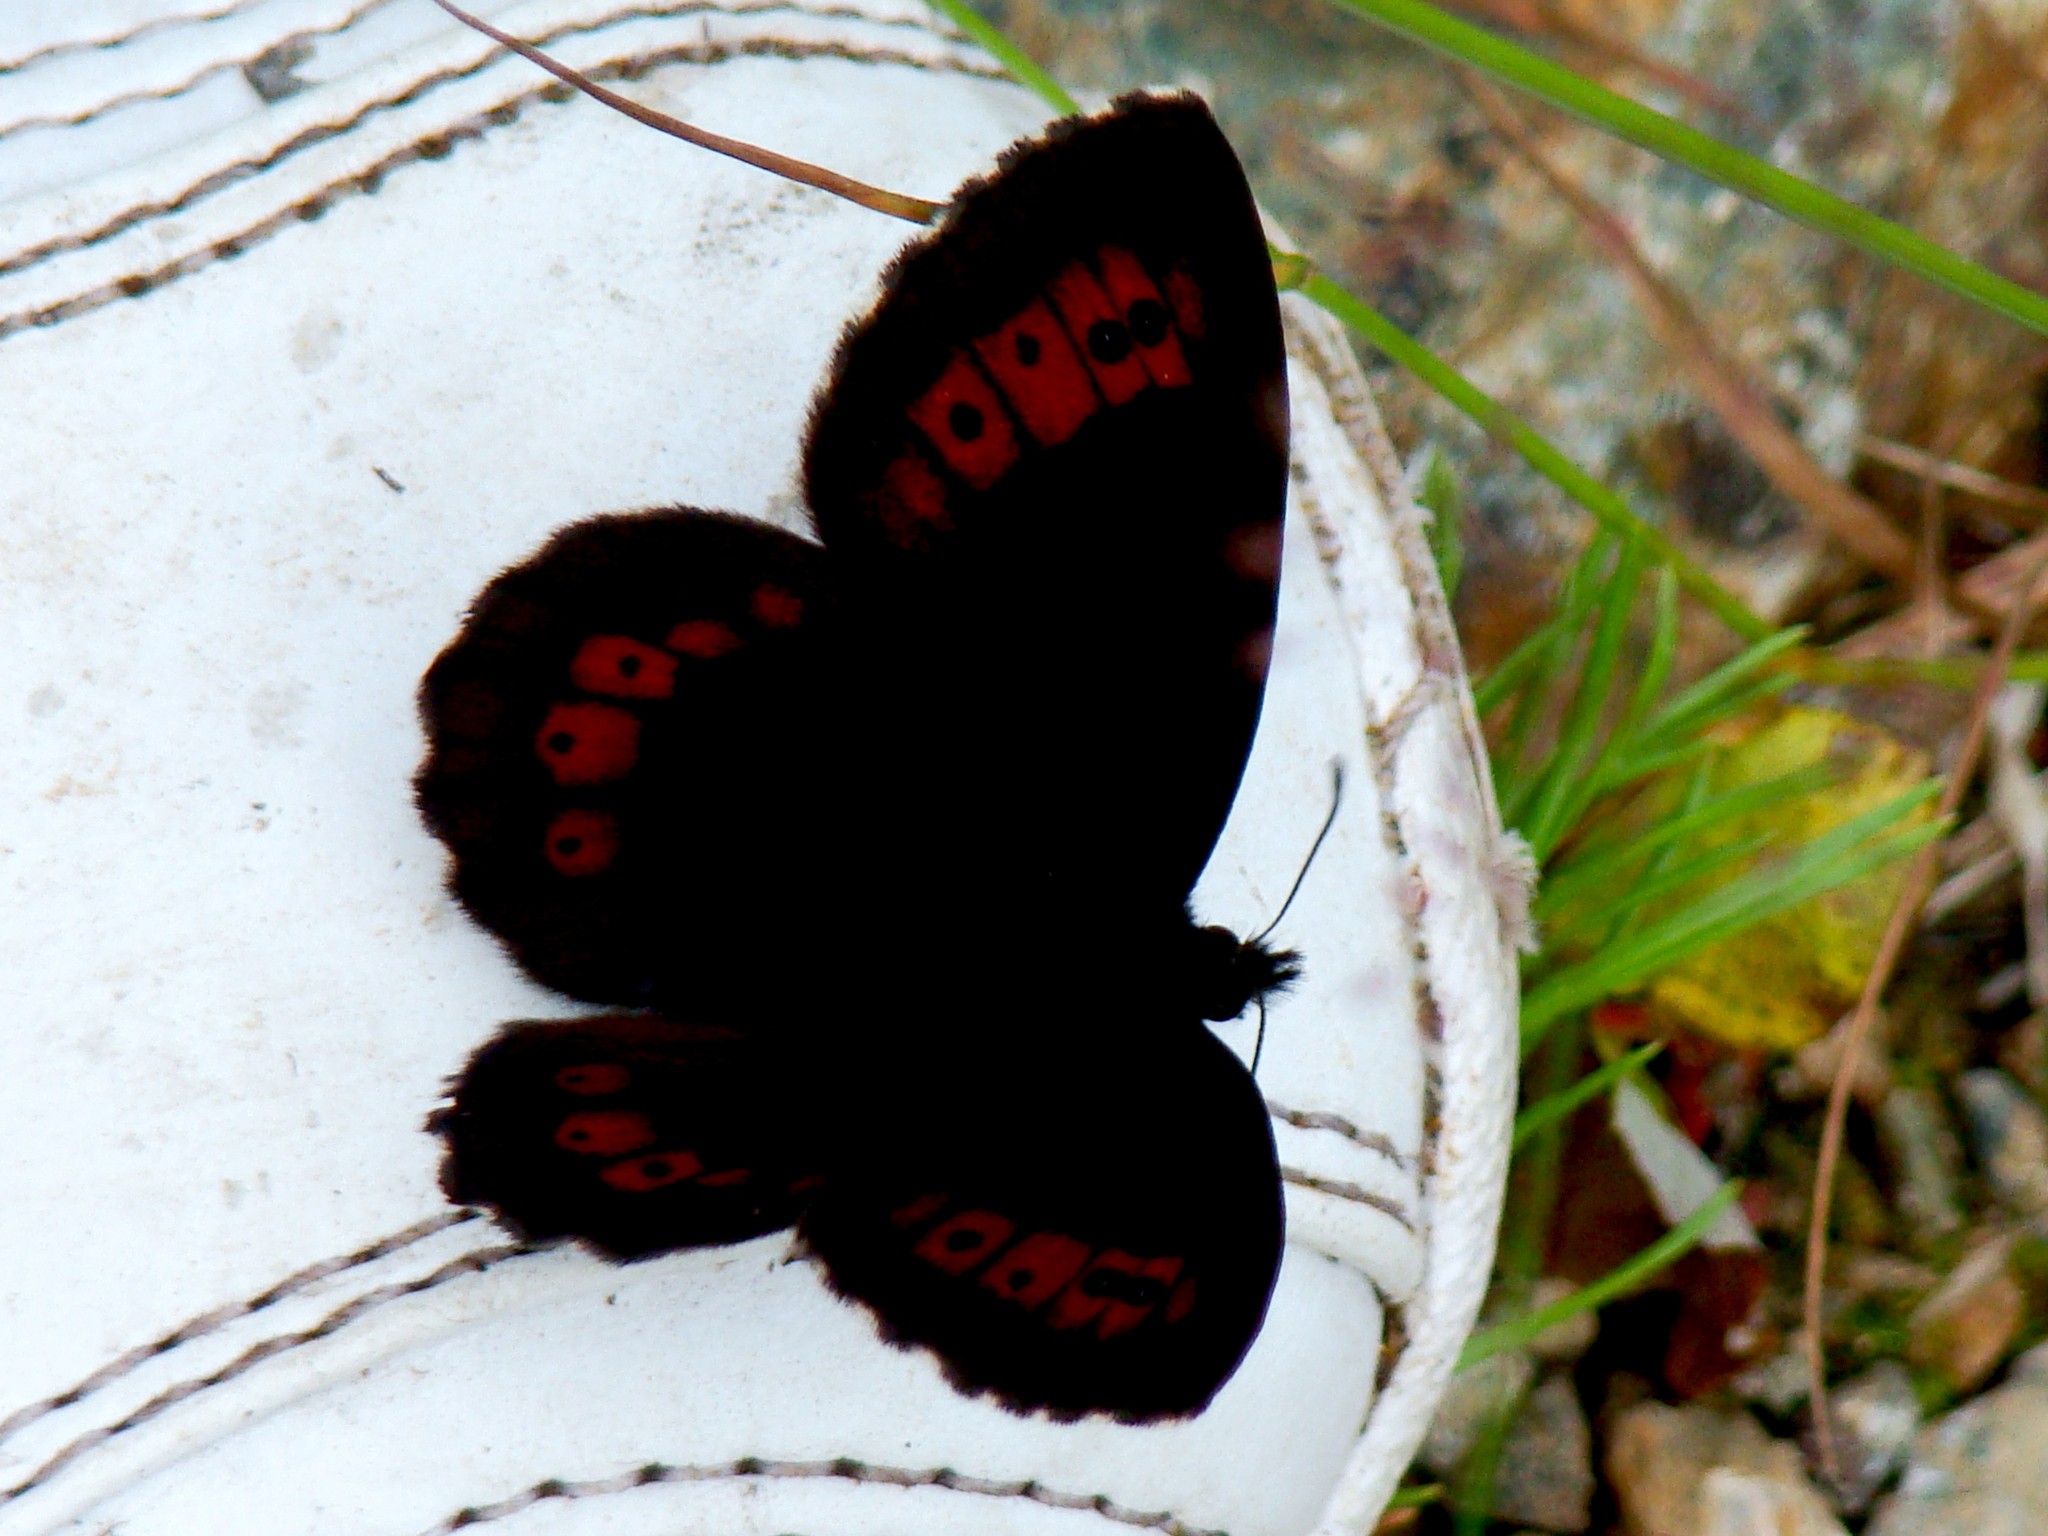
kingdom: Animalia
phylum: Arthropoda
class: Insecta
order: Lepidoptera
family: Nymphalidae
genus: Erebia
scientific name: Erebia ligea
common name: Arran brown
